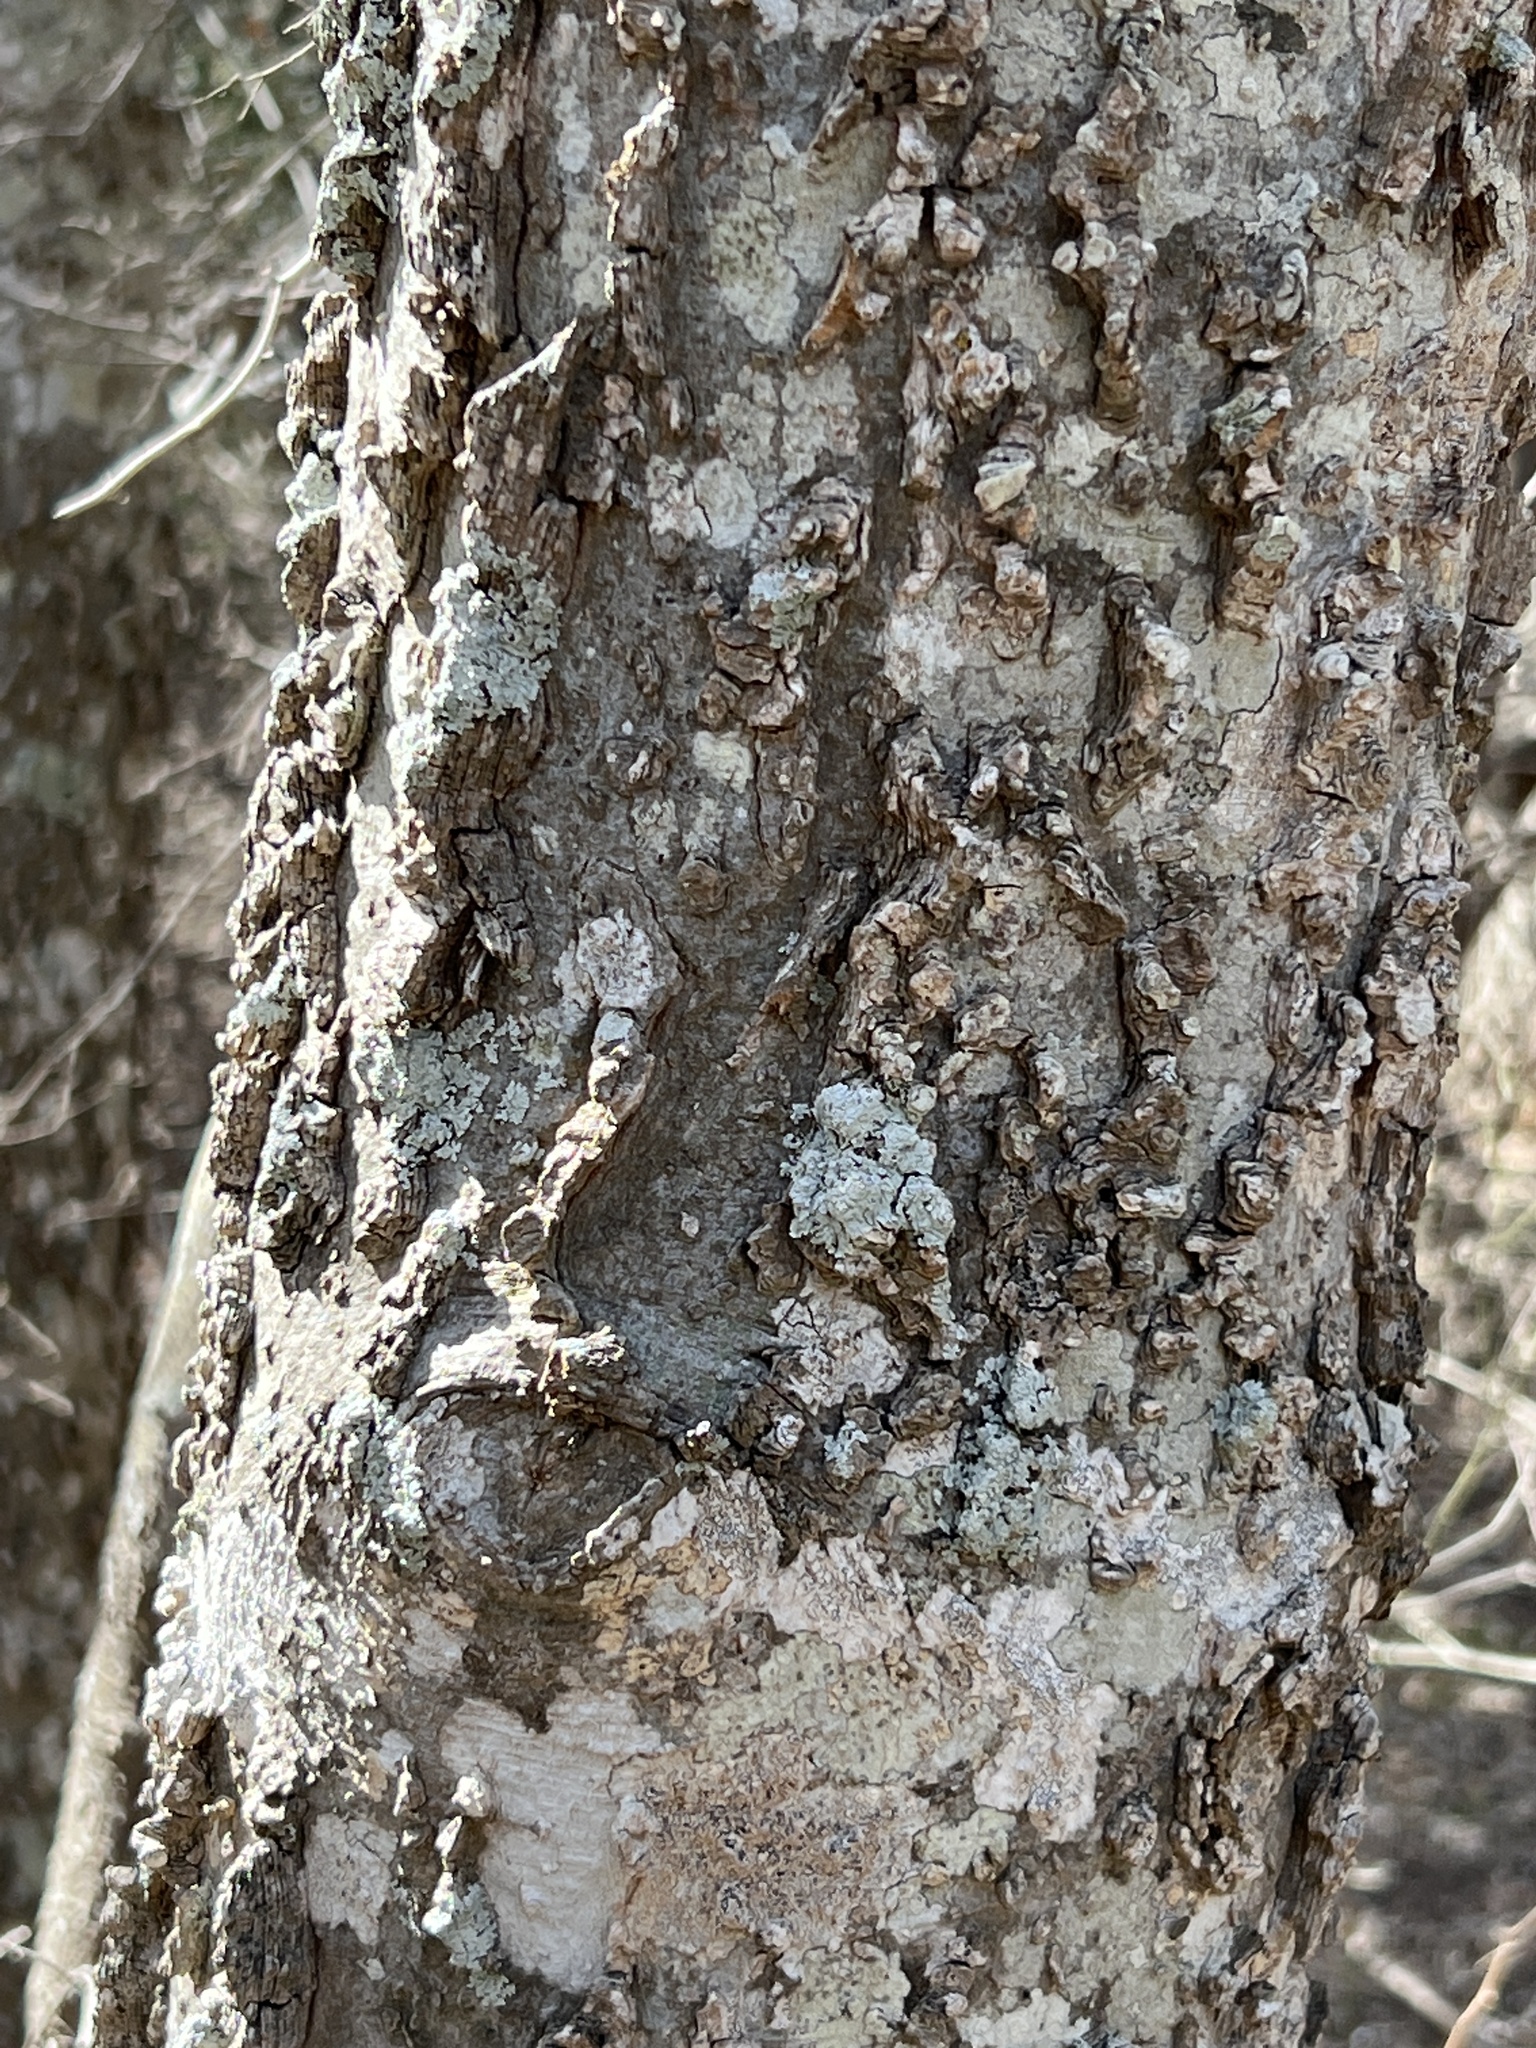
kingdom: Plantae
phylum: Tracheophyta
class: Magnoliopsida
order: Rosales
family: Cannabaceae
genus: Celtis
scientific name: Celtis laevigata
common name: Sugarberry
